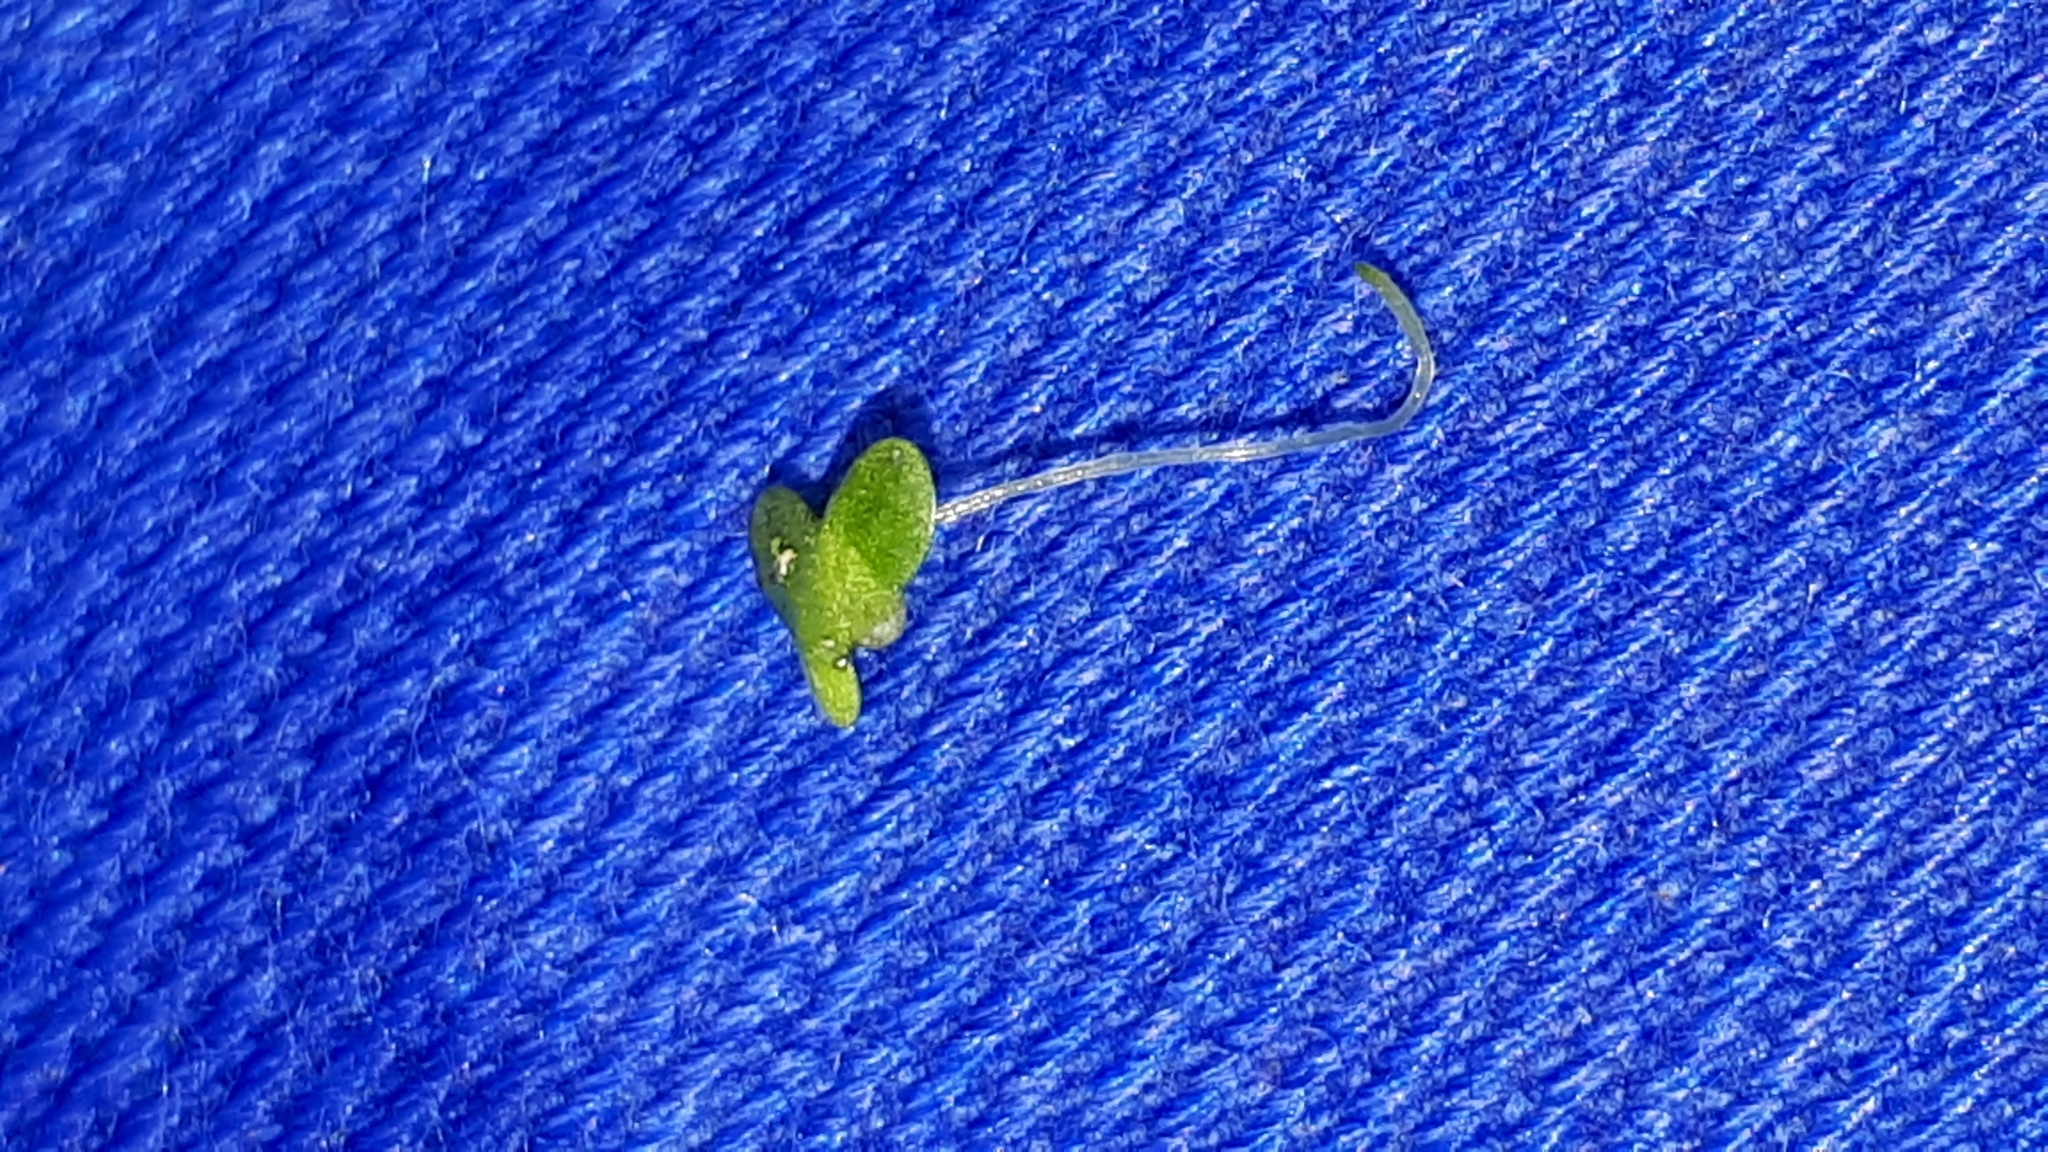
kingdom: Plantae
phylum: Tracheophyta
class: Liliopsida
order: Alismatales
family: Araceae
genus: Lemna
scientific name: Lemna minor
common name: Common duckweed
